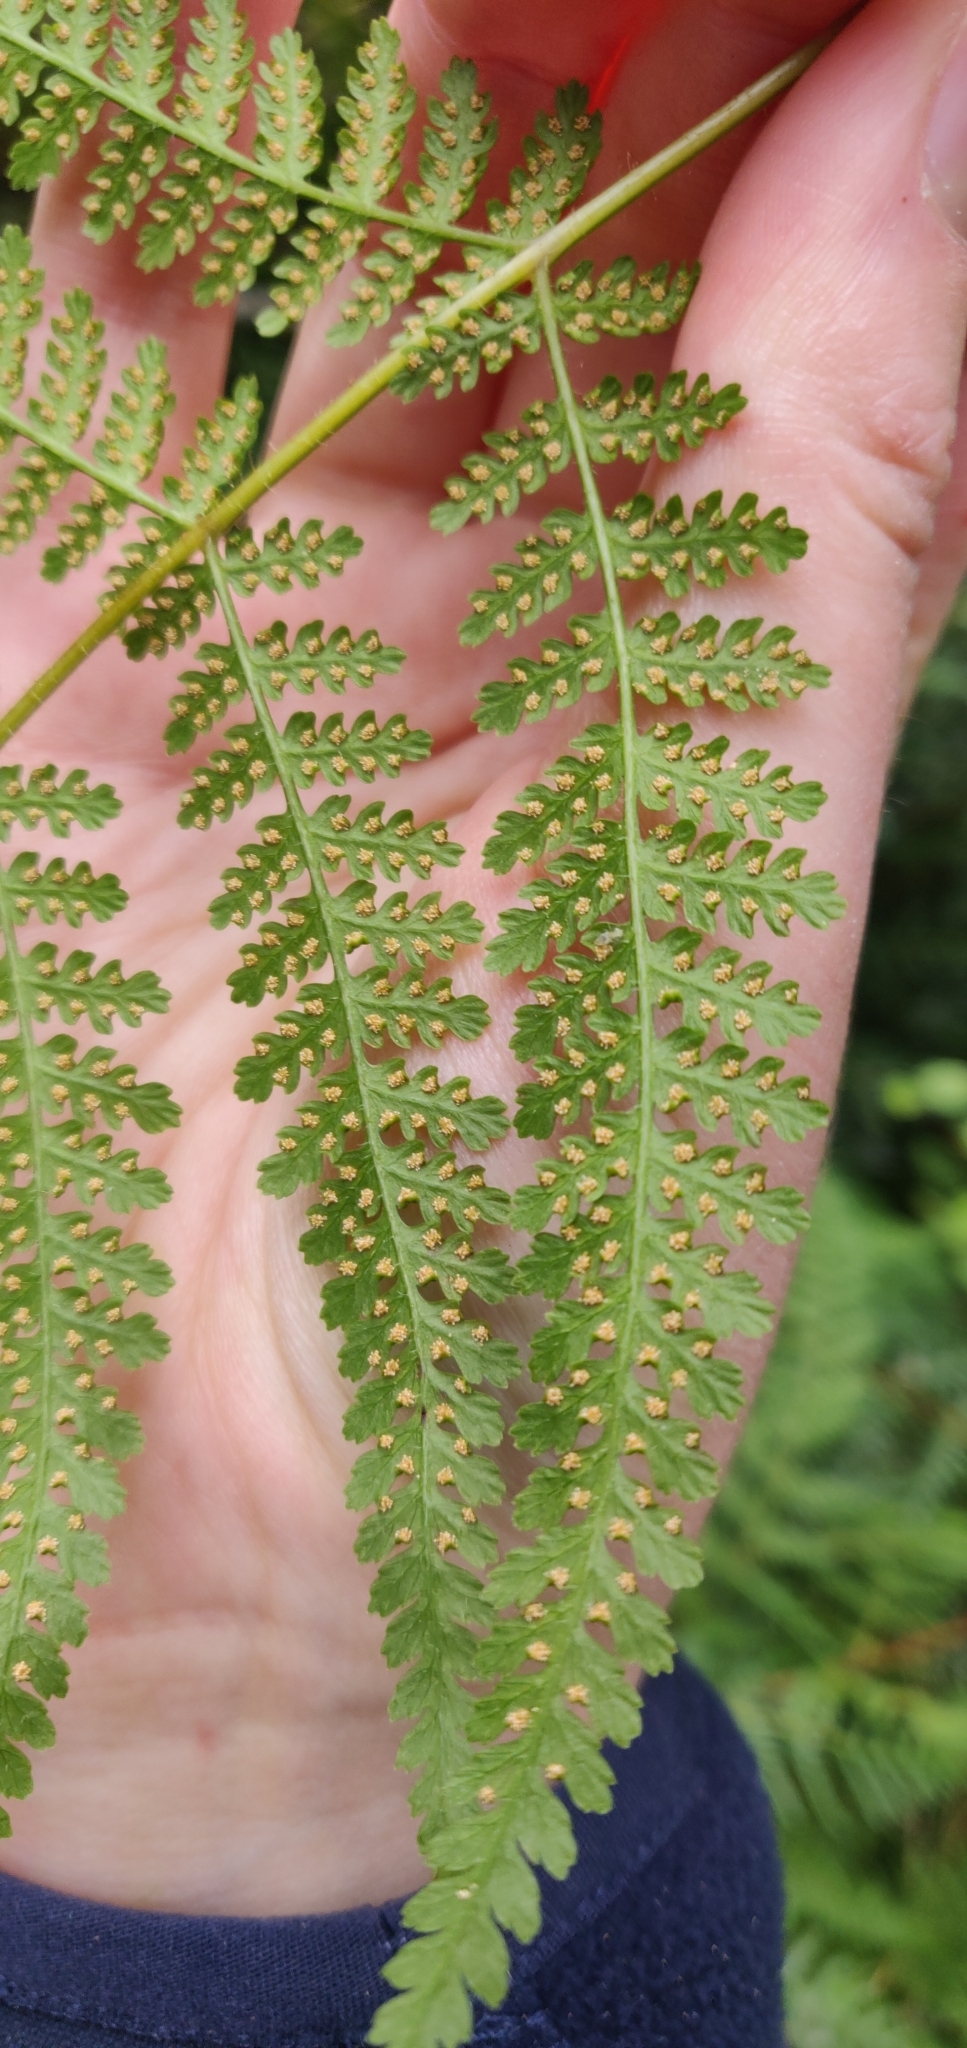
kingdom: Plantae
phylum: Tracheophyta
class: Polypodiopsida
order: Polypodiales
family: Dennstaedtiaceae
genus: Hypolepis
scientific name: Hypolepis ambigua
